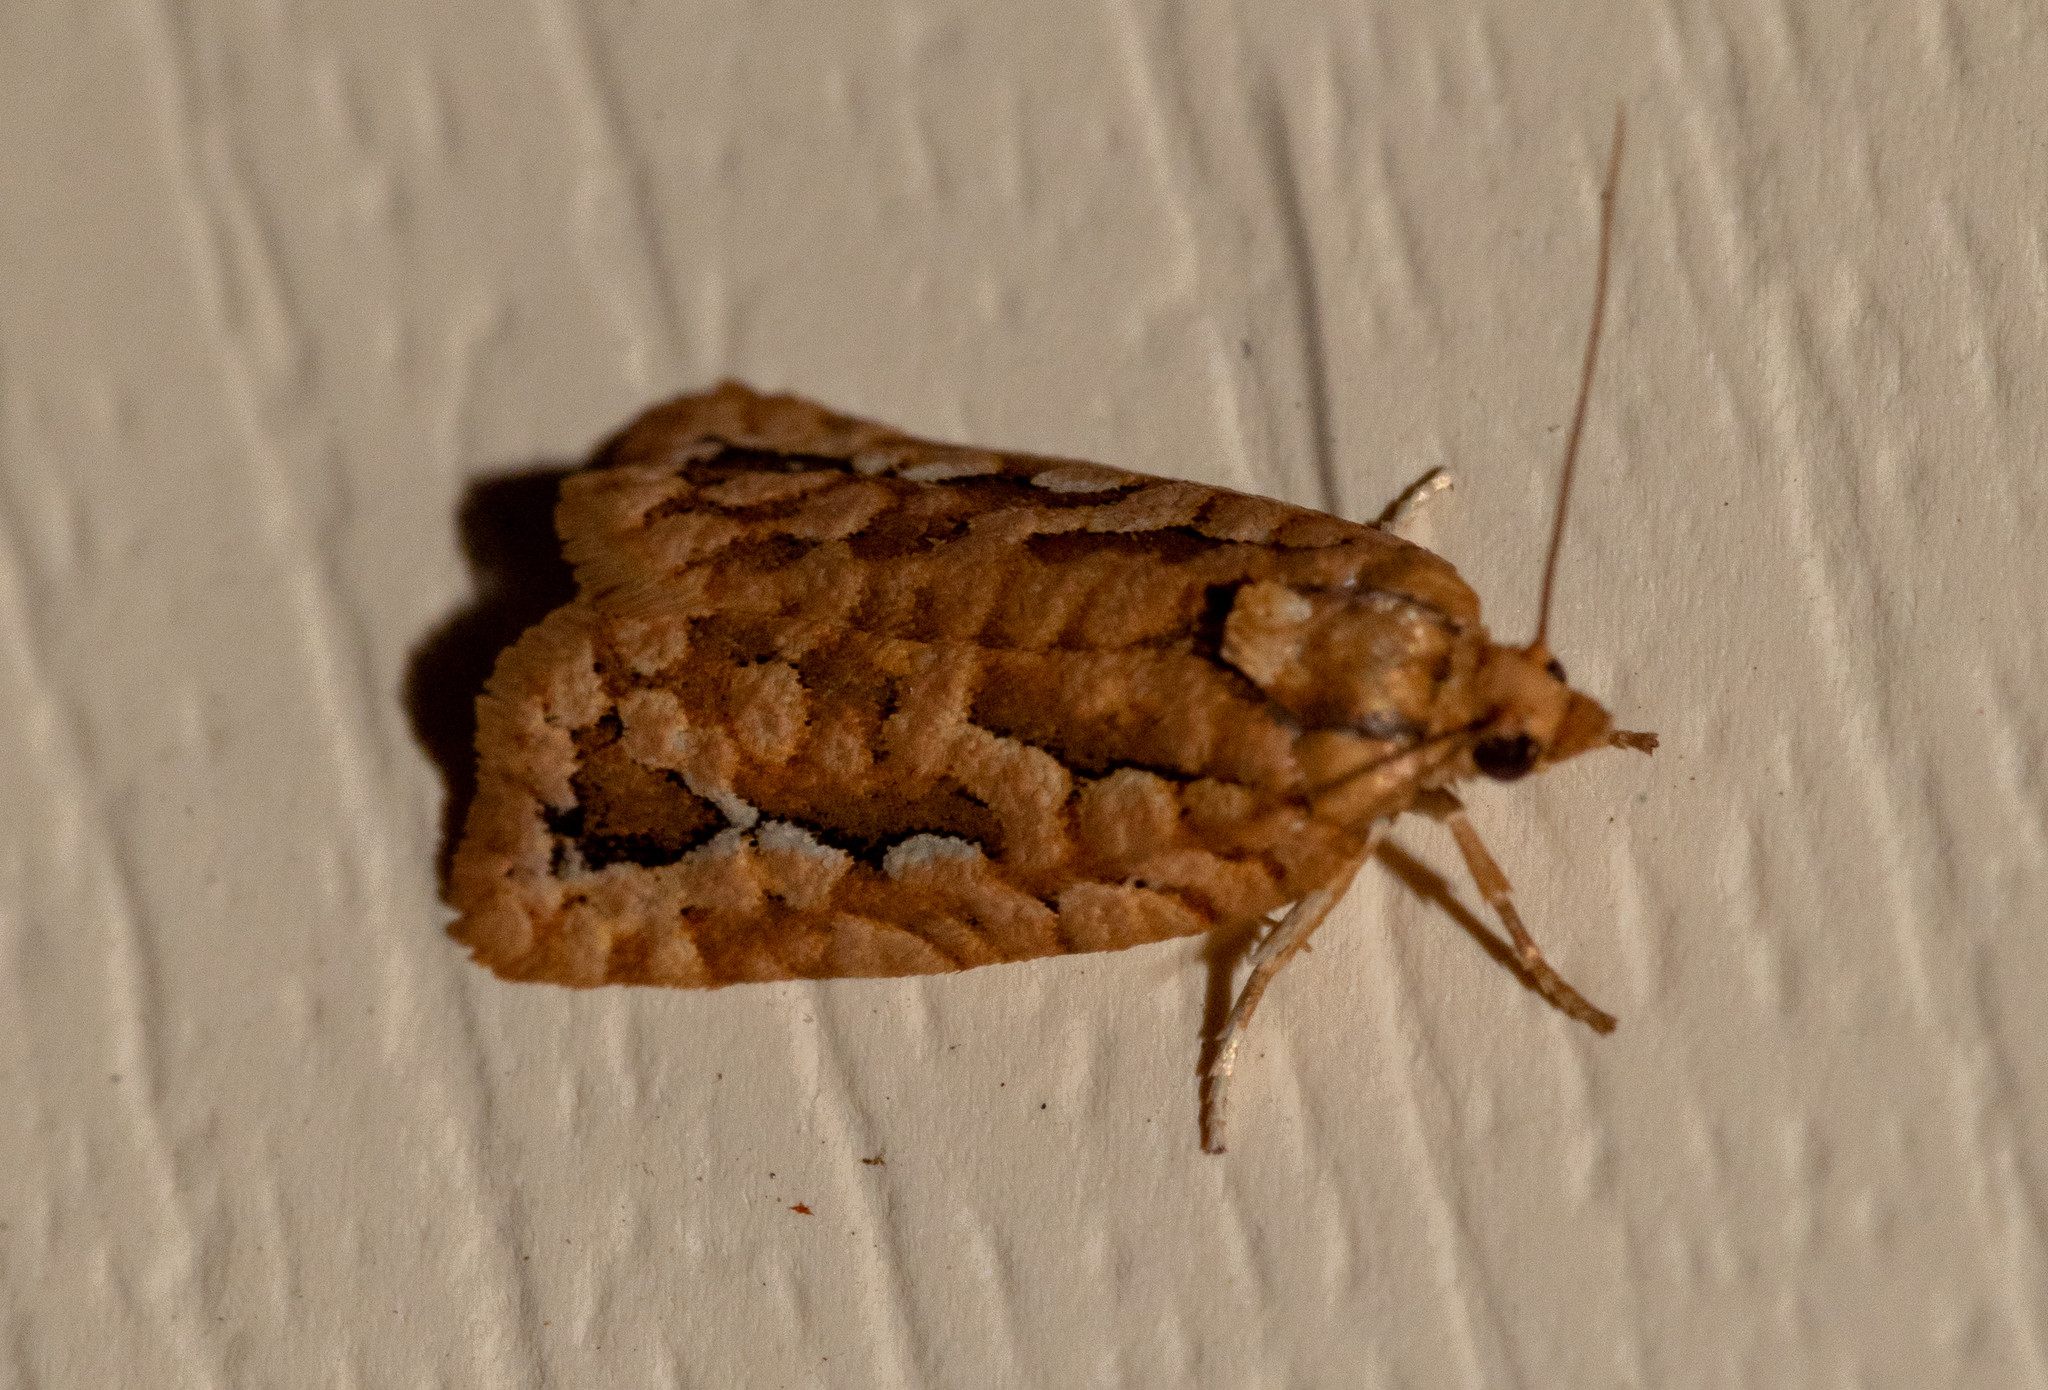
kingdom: Animalia
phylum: Arthropoda
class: Insecta
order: Lepidoptera
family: Tortricidae
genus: Diedra
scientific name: Diedra cockerellana
